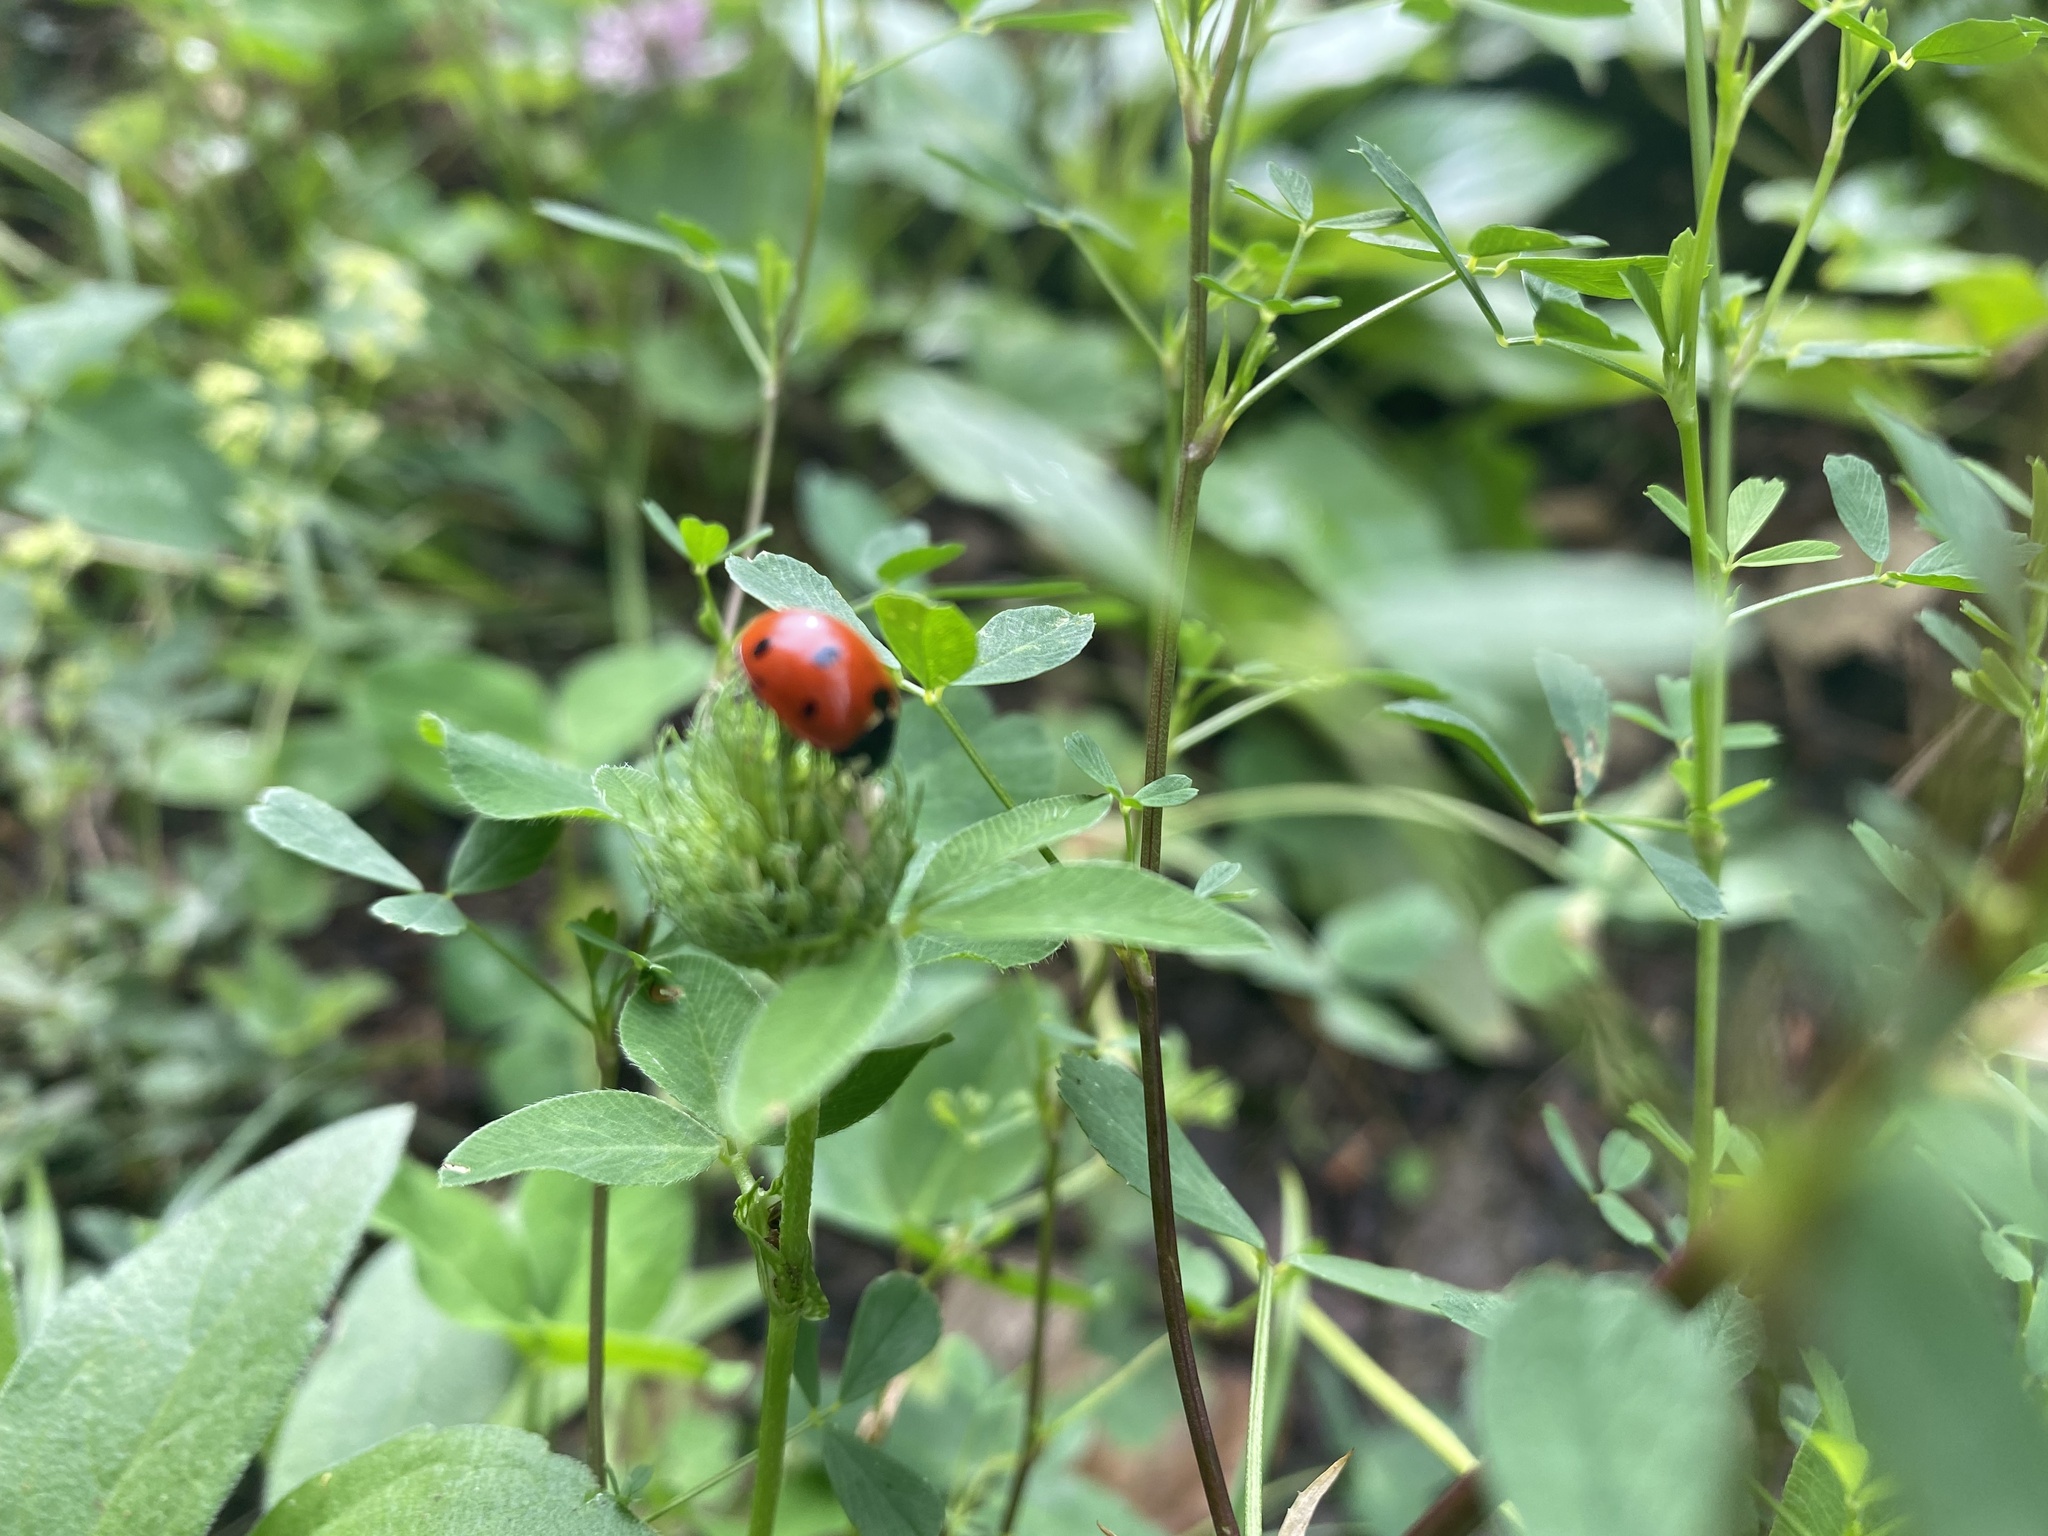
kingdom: Animalia
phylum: Arthropoda
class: Insecta
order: Coleoptera
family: Coccinellidae
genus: Coccinella
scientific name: Coccinella septempunctata
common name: Sevenspotted lady beetle
